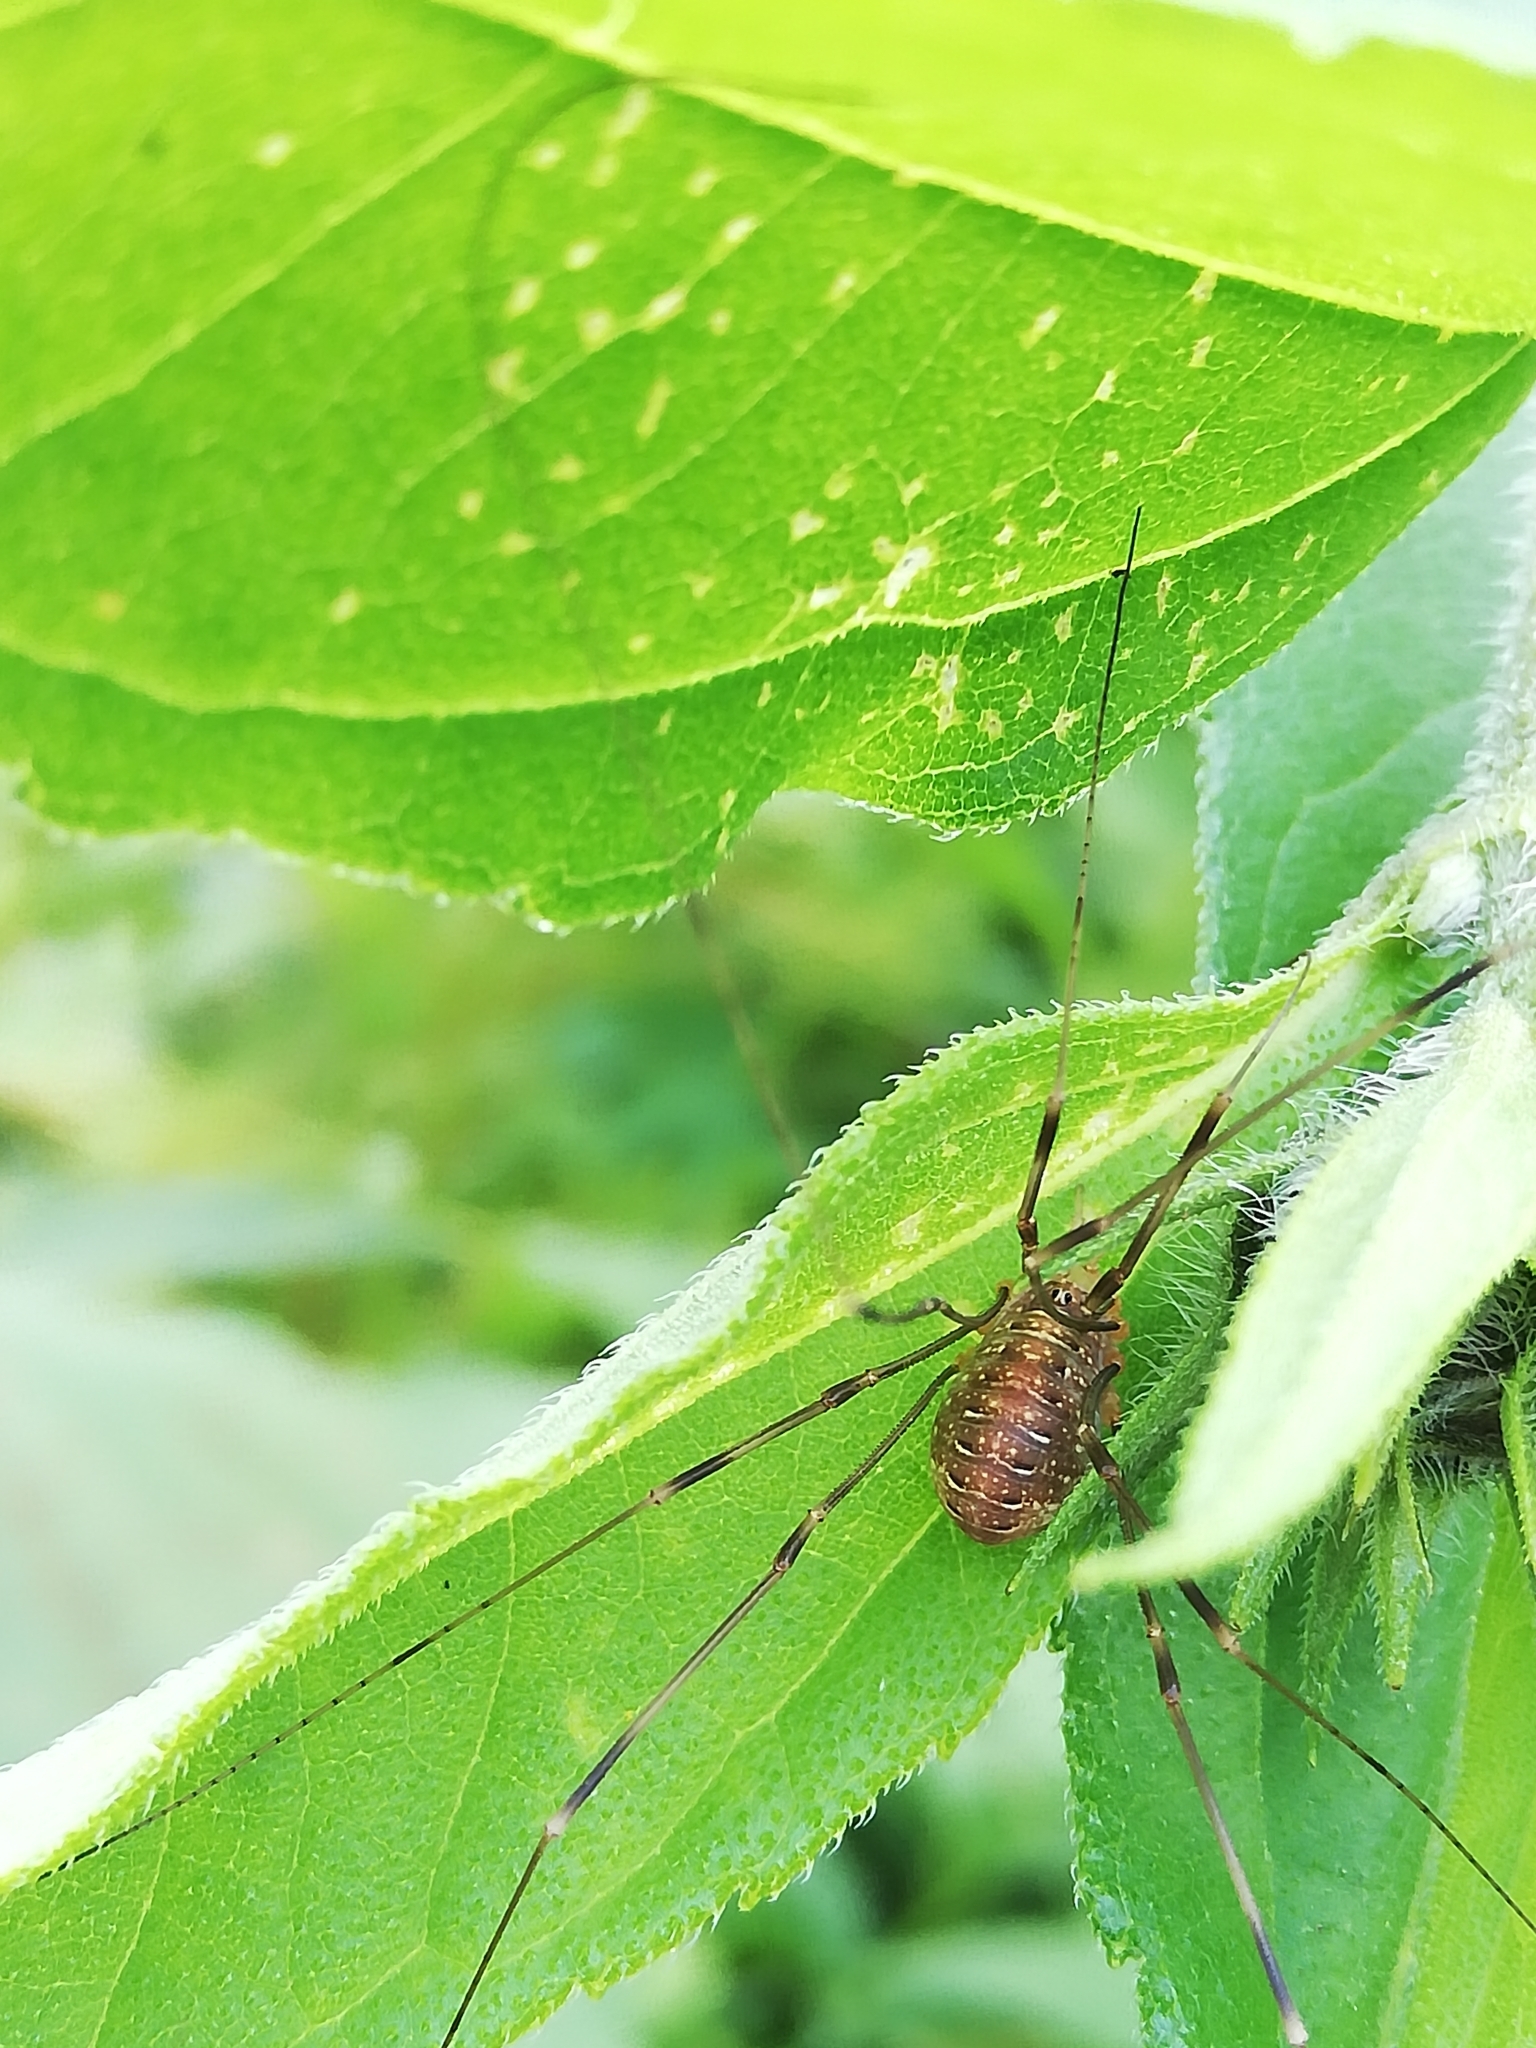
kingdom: Animalia
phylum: Arthropoda
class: Arachnida
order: Opiliones
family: Phalangiidae
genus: Opilio
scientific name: Opilio canestrinii
